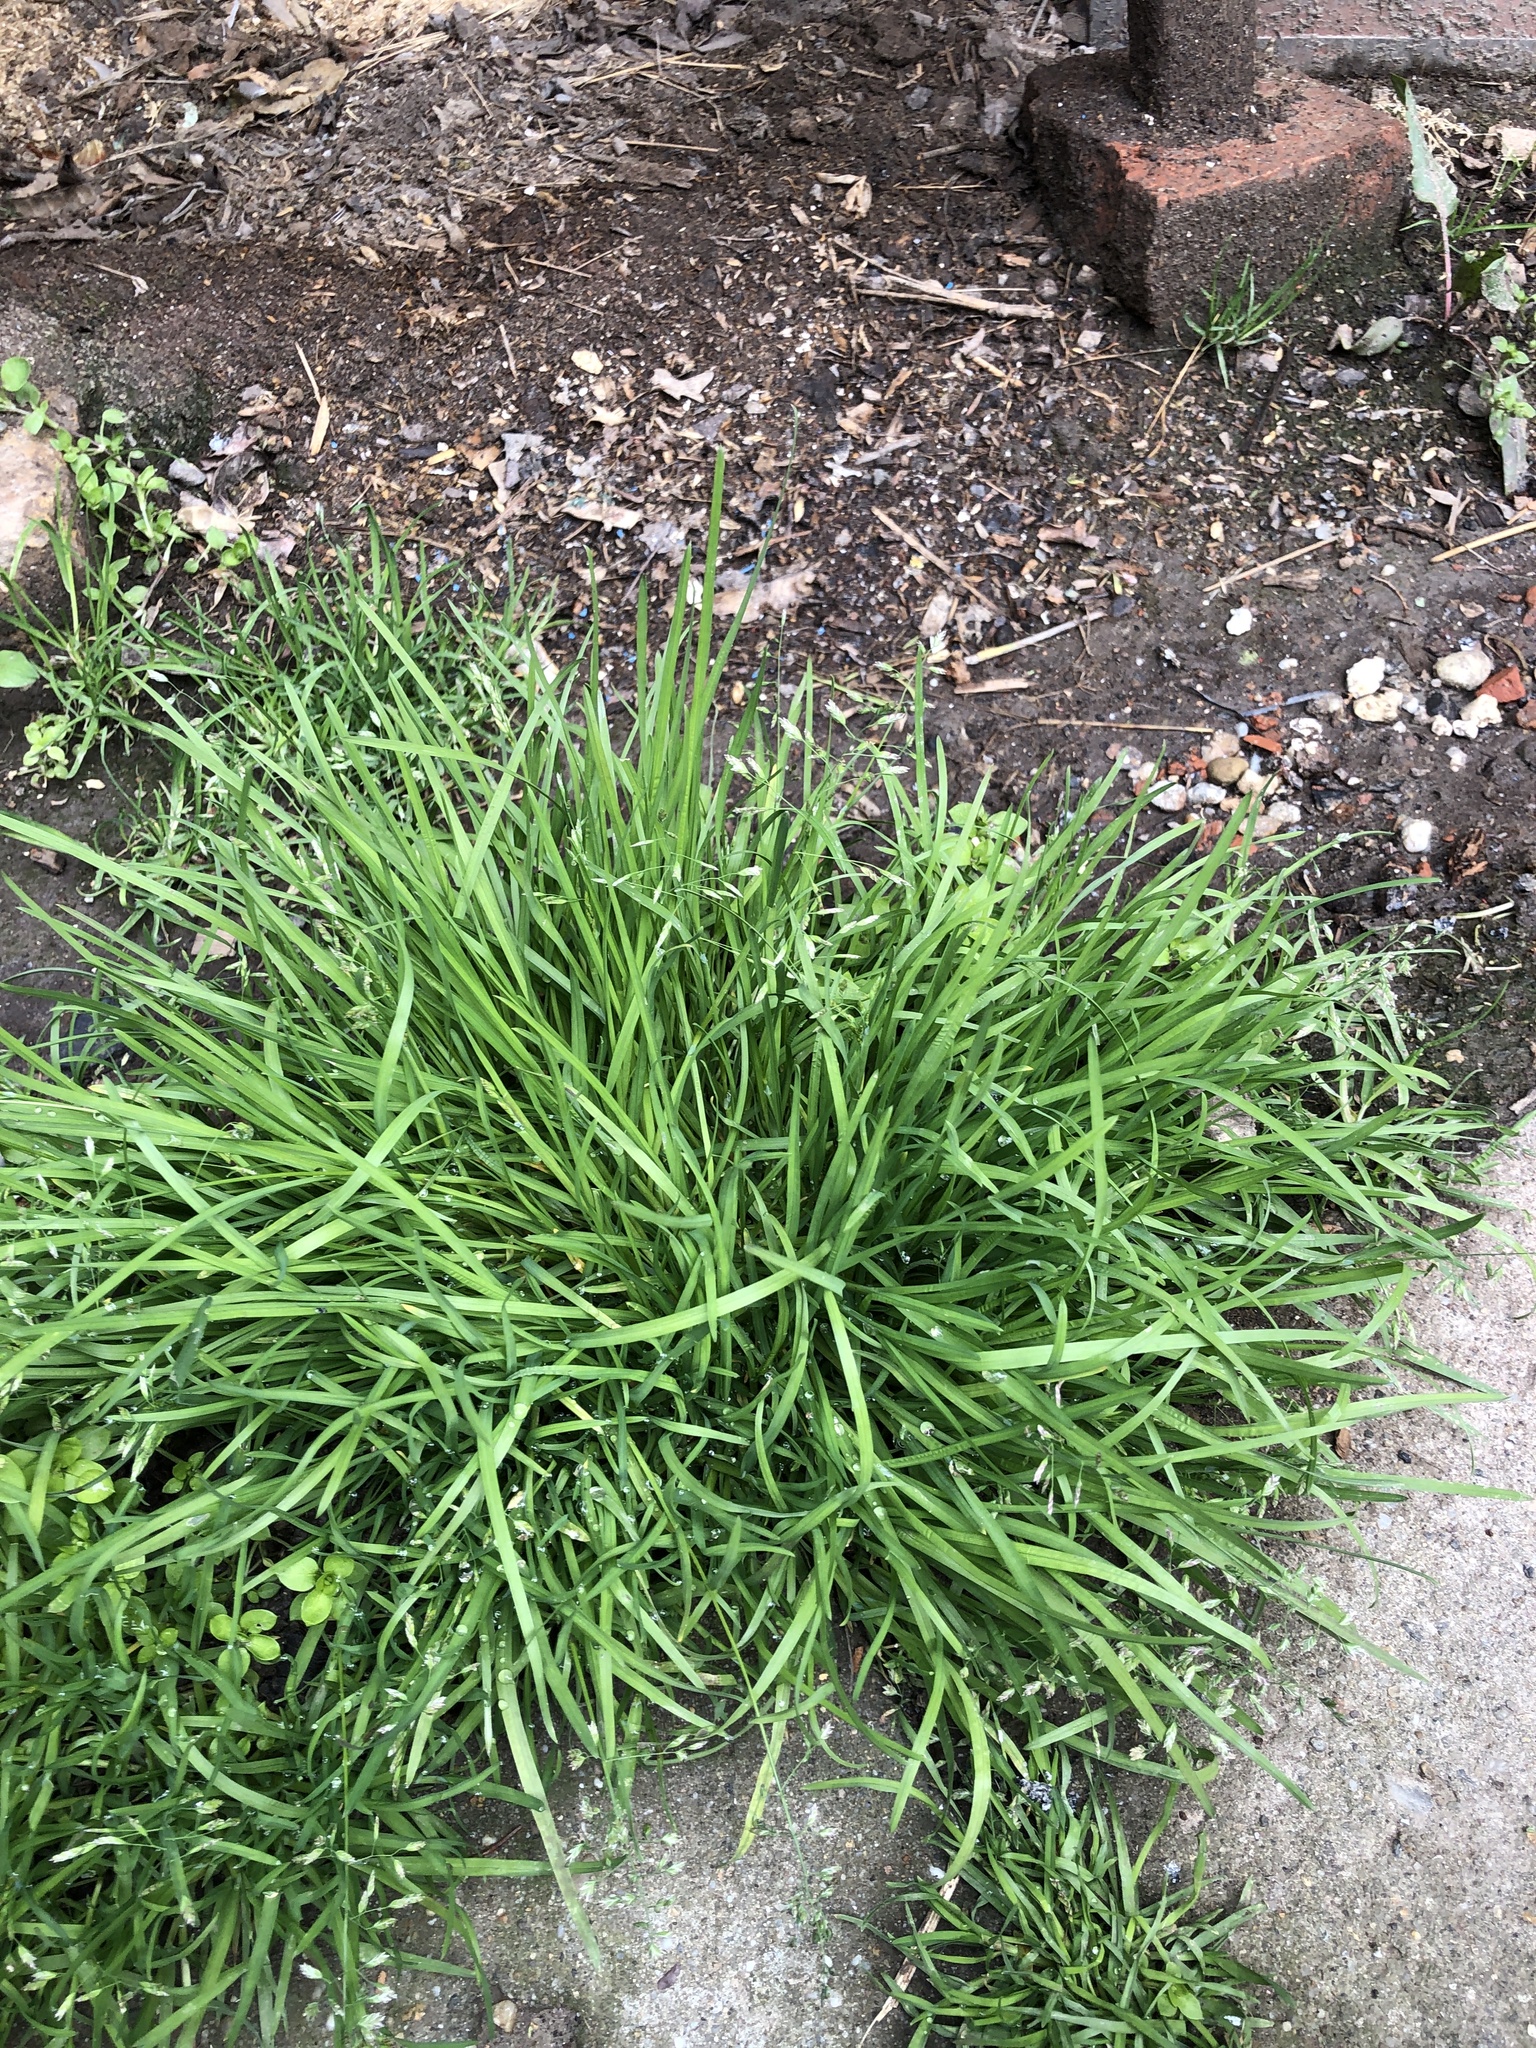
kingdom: Plantae
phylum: Tracheophyta
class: Liliopsida
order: Poales
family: Poaceae
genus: Poa
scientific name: Poa annua
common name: Annual bluegrass
